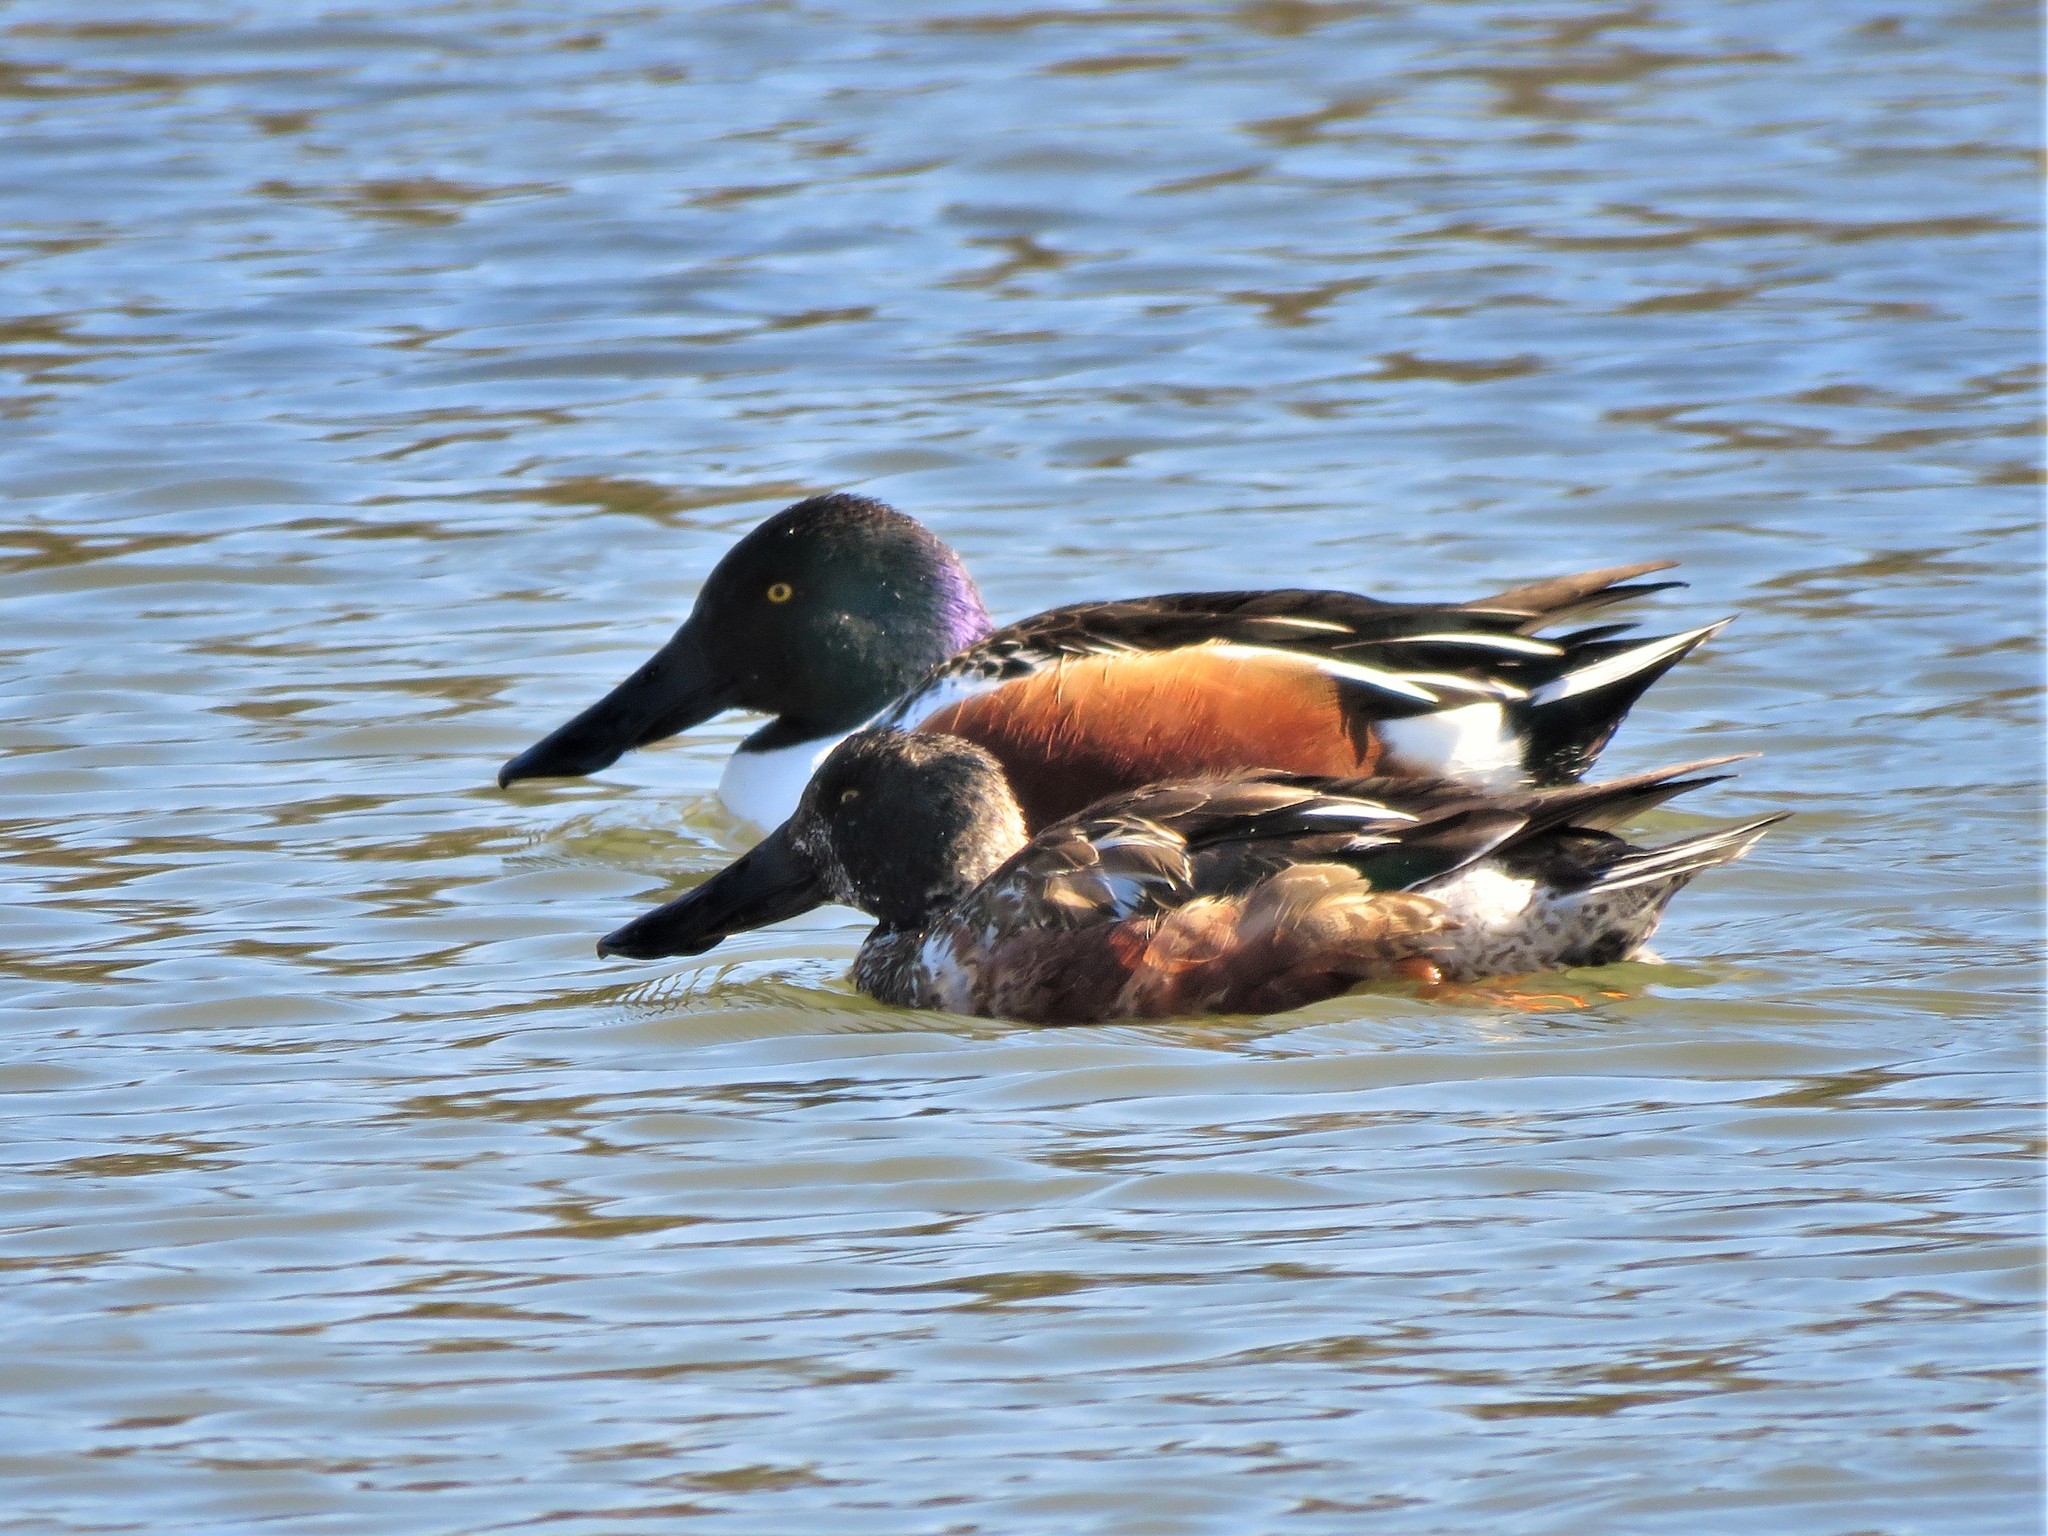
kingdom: Animalia
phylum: Chordata
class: Aves
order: Anseriformes
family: Anatidae
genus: Spatula
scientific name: Spatula clypeata
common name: Northern shoveler
